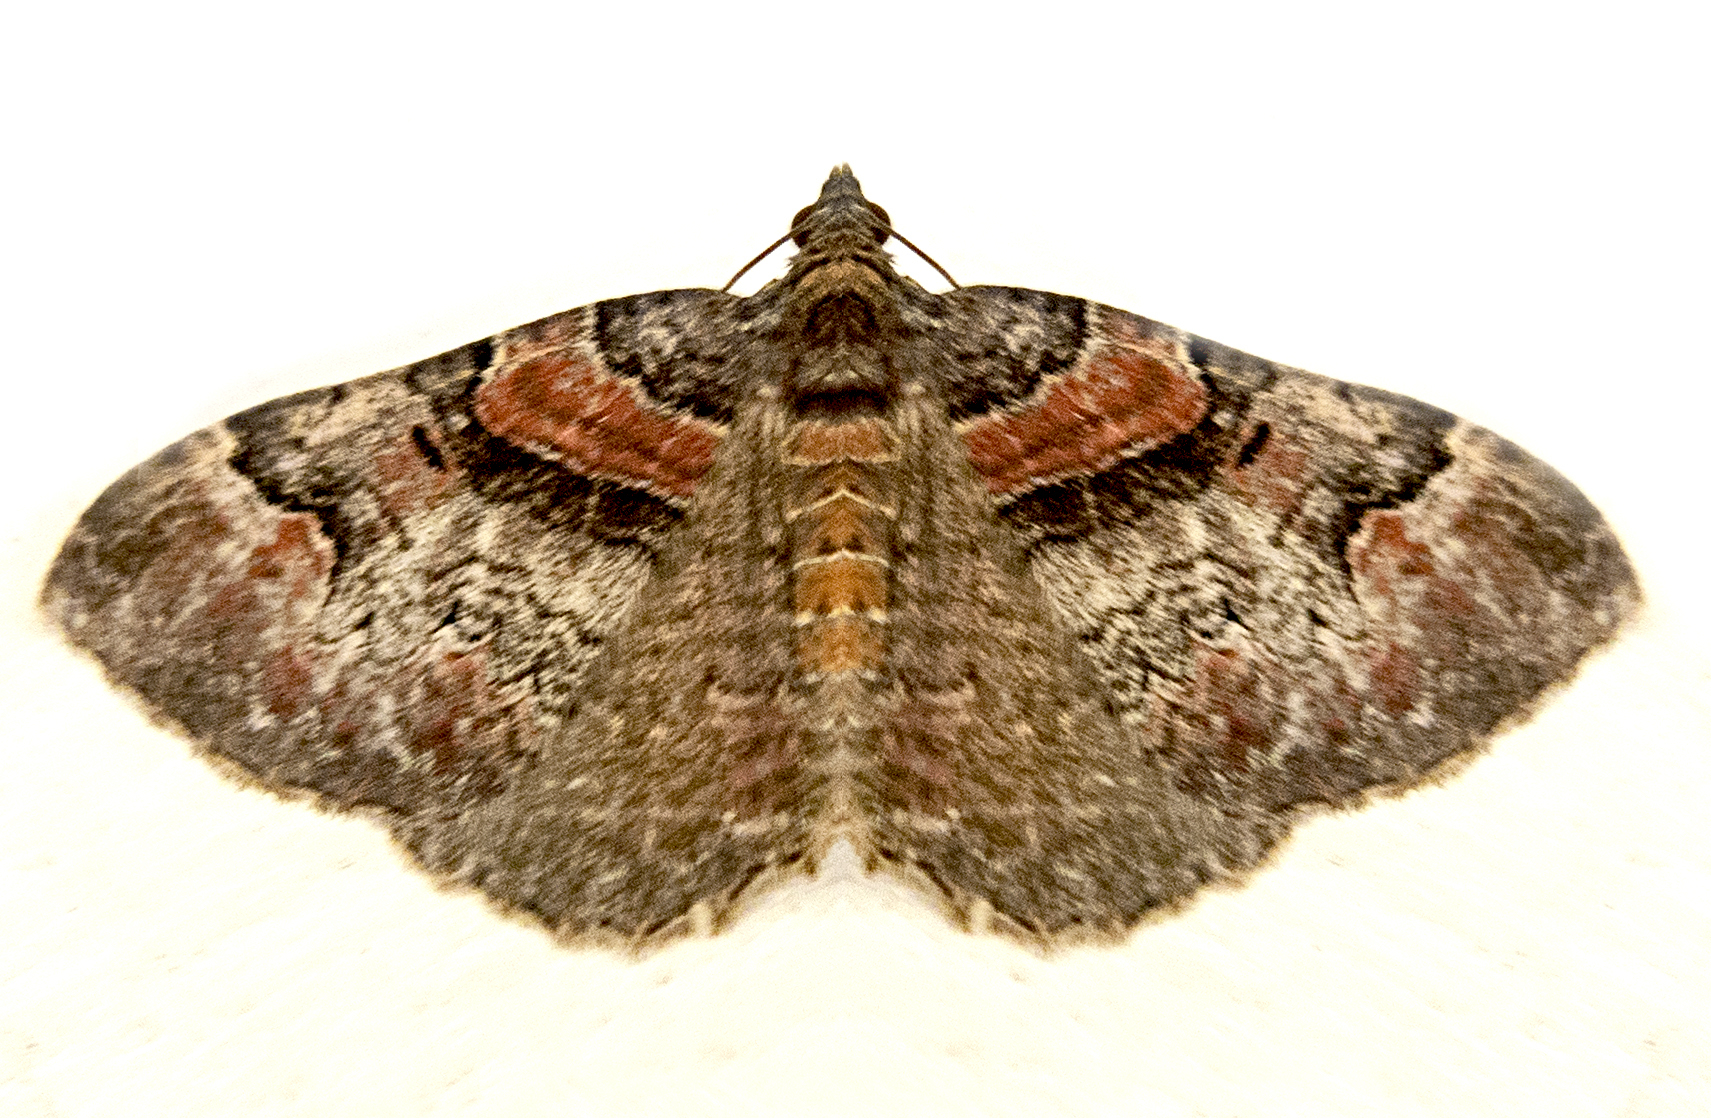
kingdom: Animalia
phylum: Arthropoda
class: Insecta
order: Lepidoptera
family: Geometridae
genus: Catarhoe
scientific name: Catarhoe rubidata
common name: Ruddy carpet
